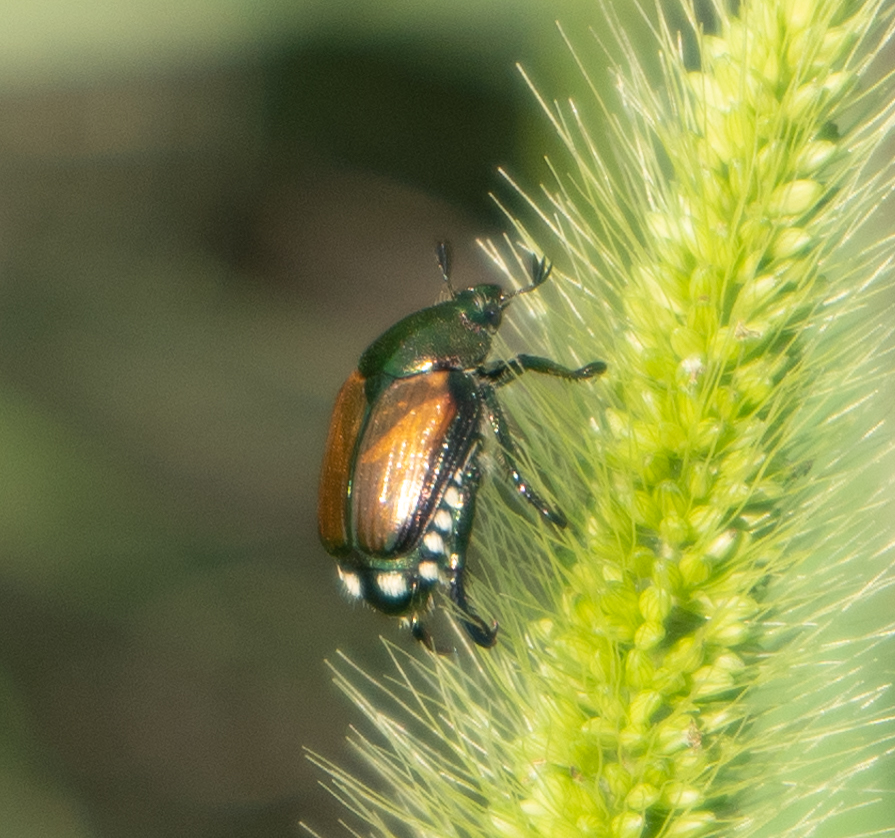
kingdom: Animalia
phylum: Arthropoda
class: Insecta
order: Coleoptera
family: Scarabaeidae
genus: Popillia
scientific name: Popillia japonica
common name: Japanese beetle
